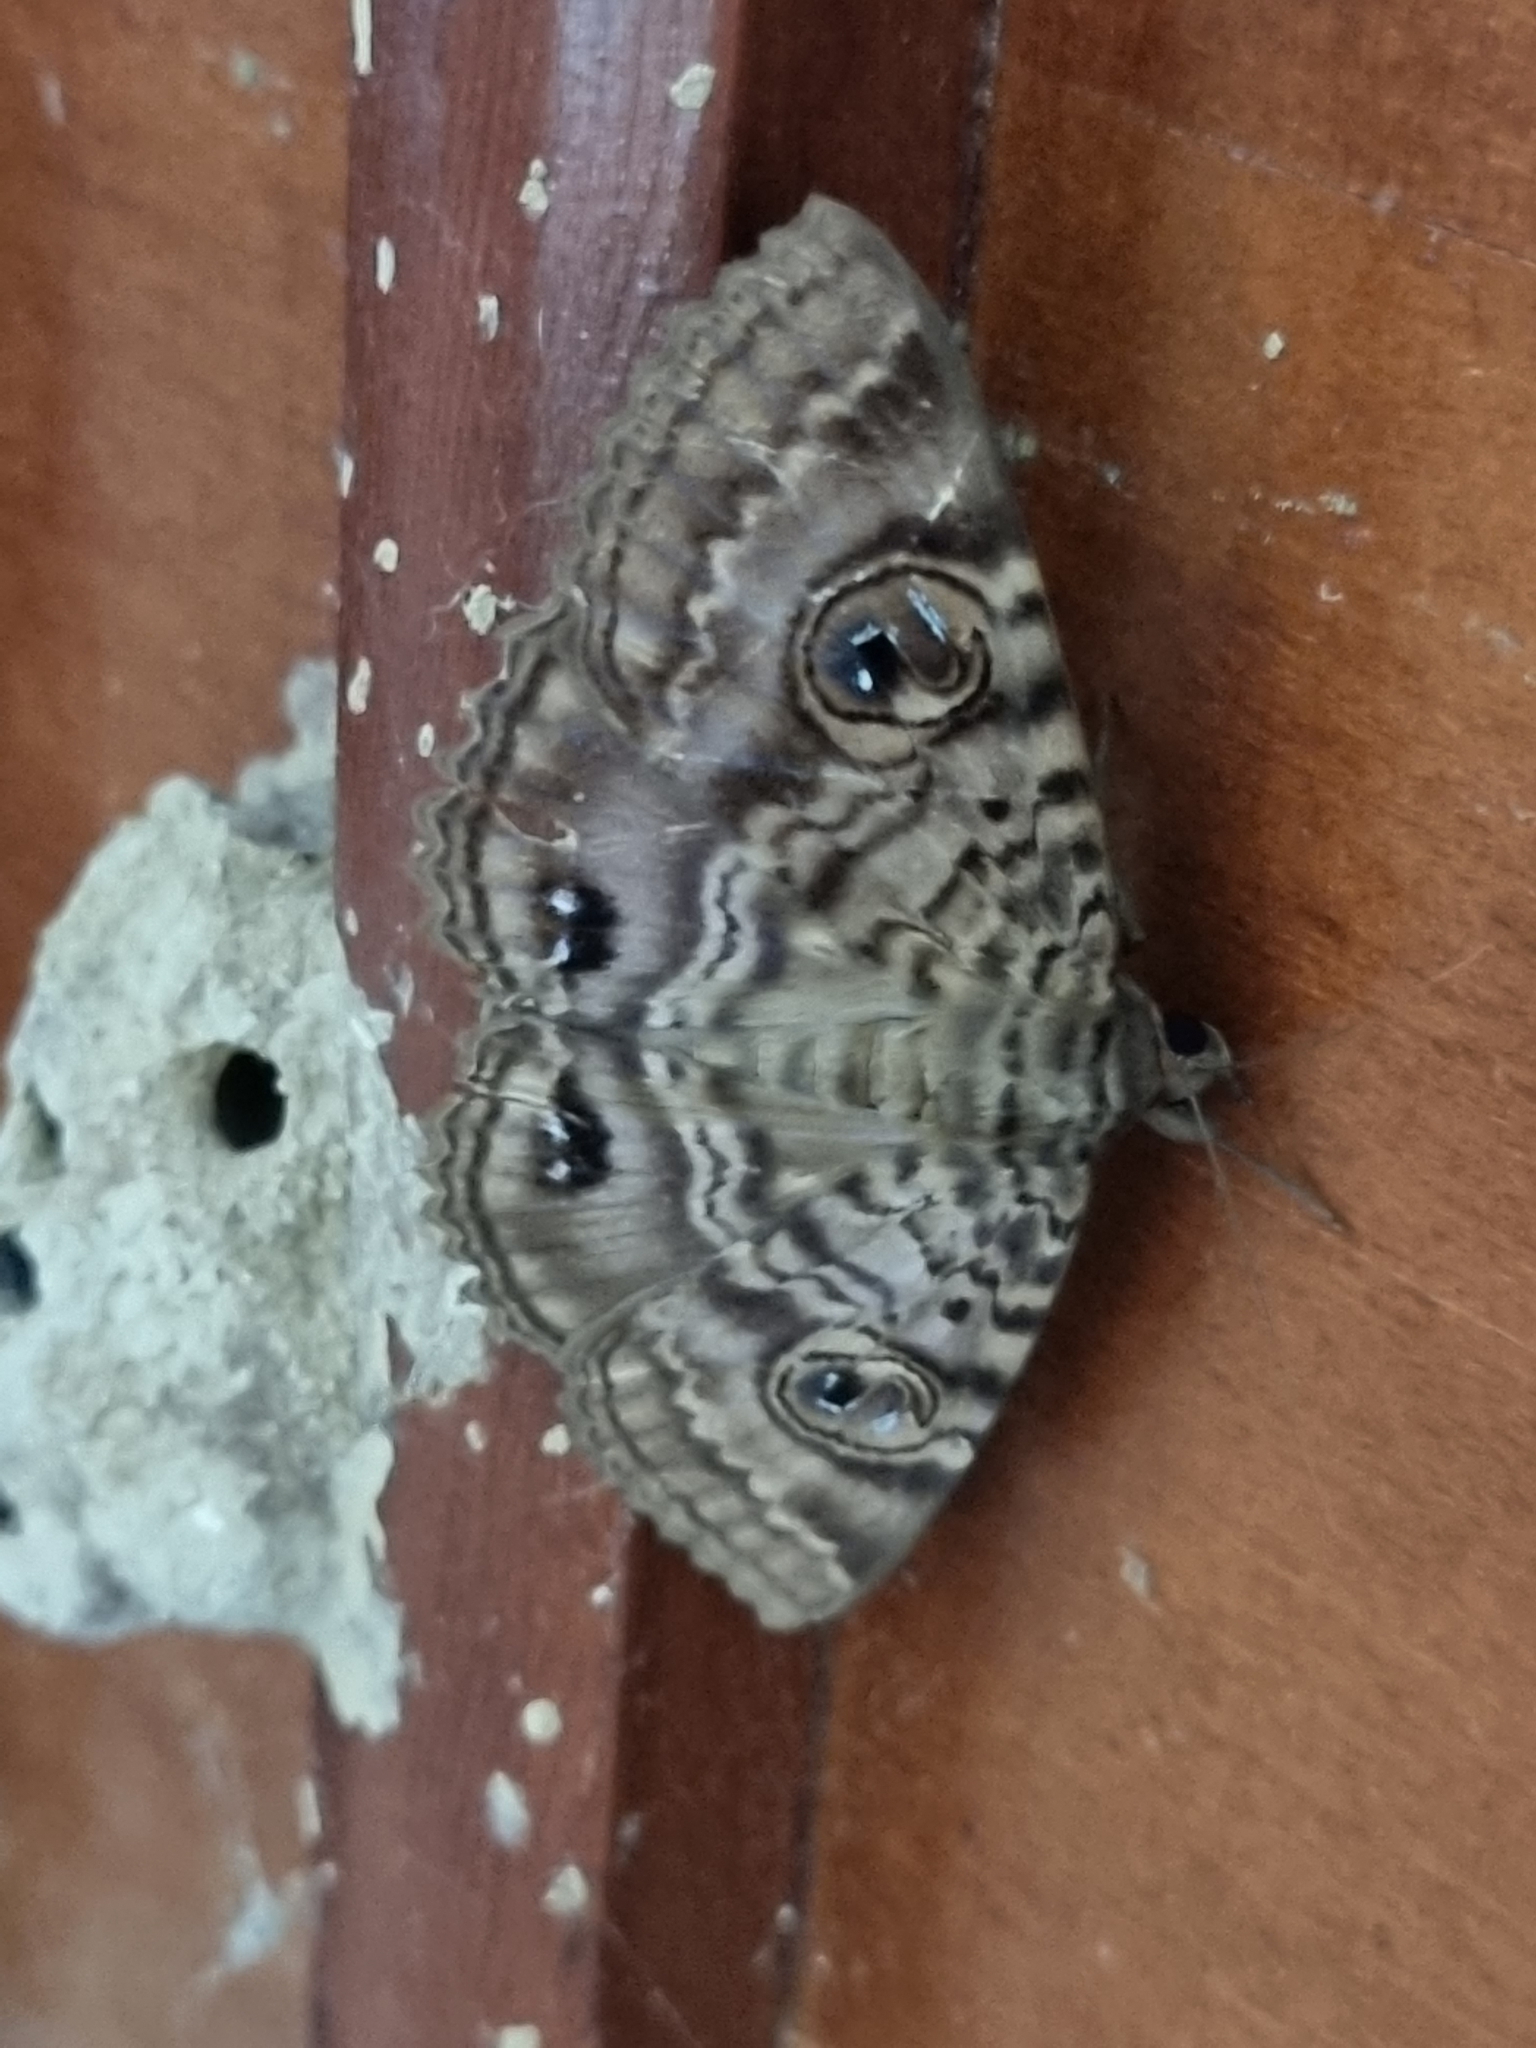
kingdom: Animalia
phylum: Arthropoda
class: Insecta
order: Lepidoptera
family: Erebidae
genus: Speiredonia
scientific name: Speiredonia spectans
